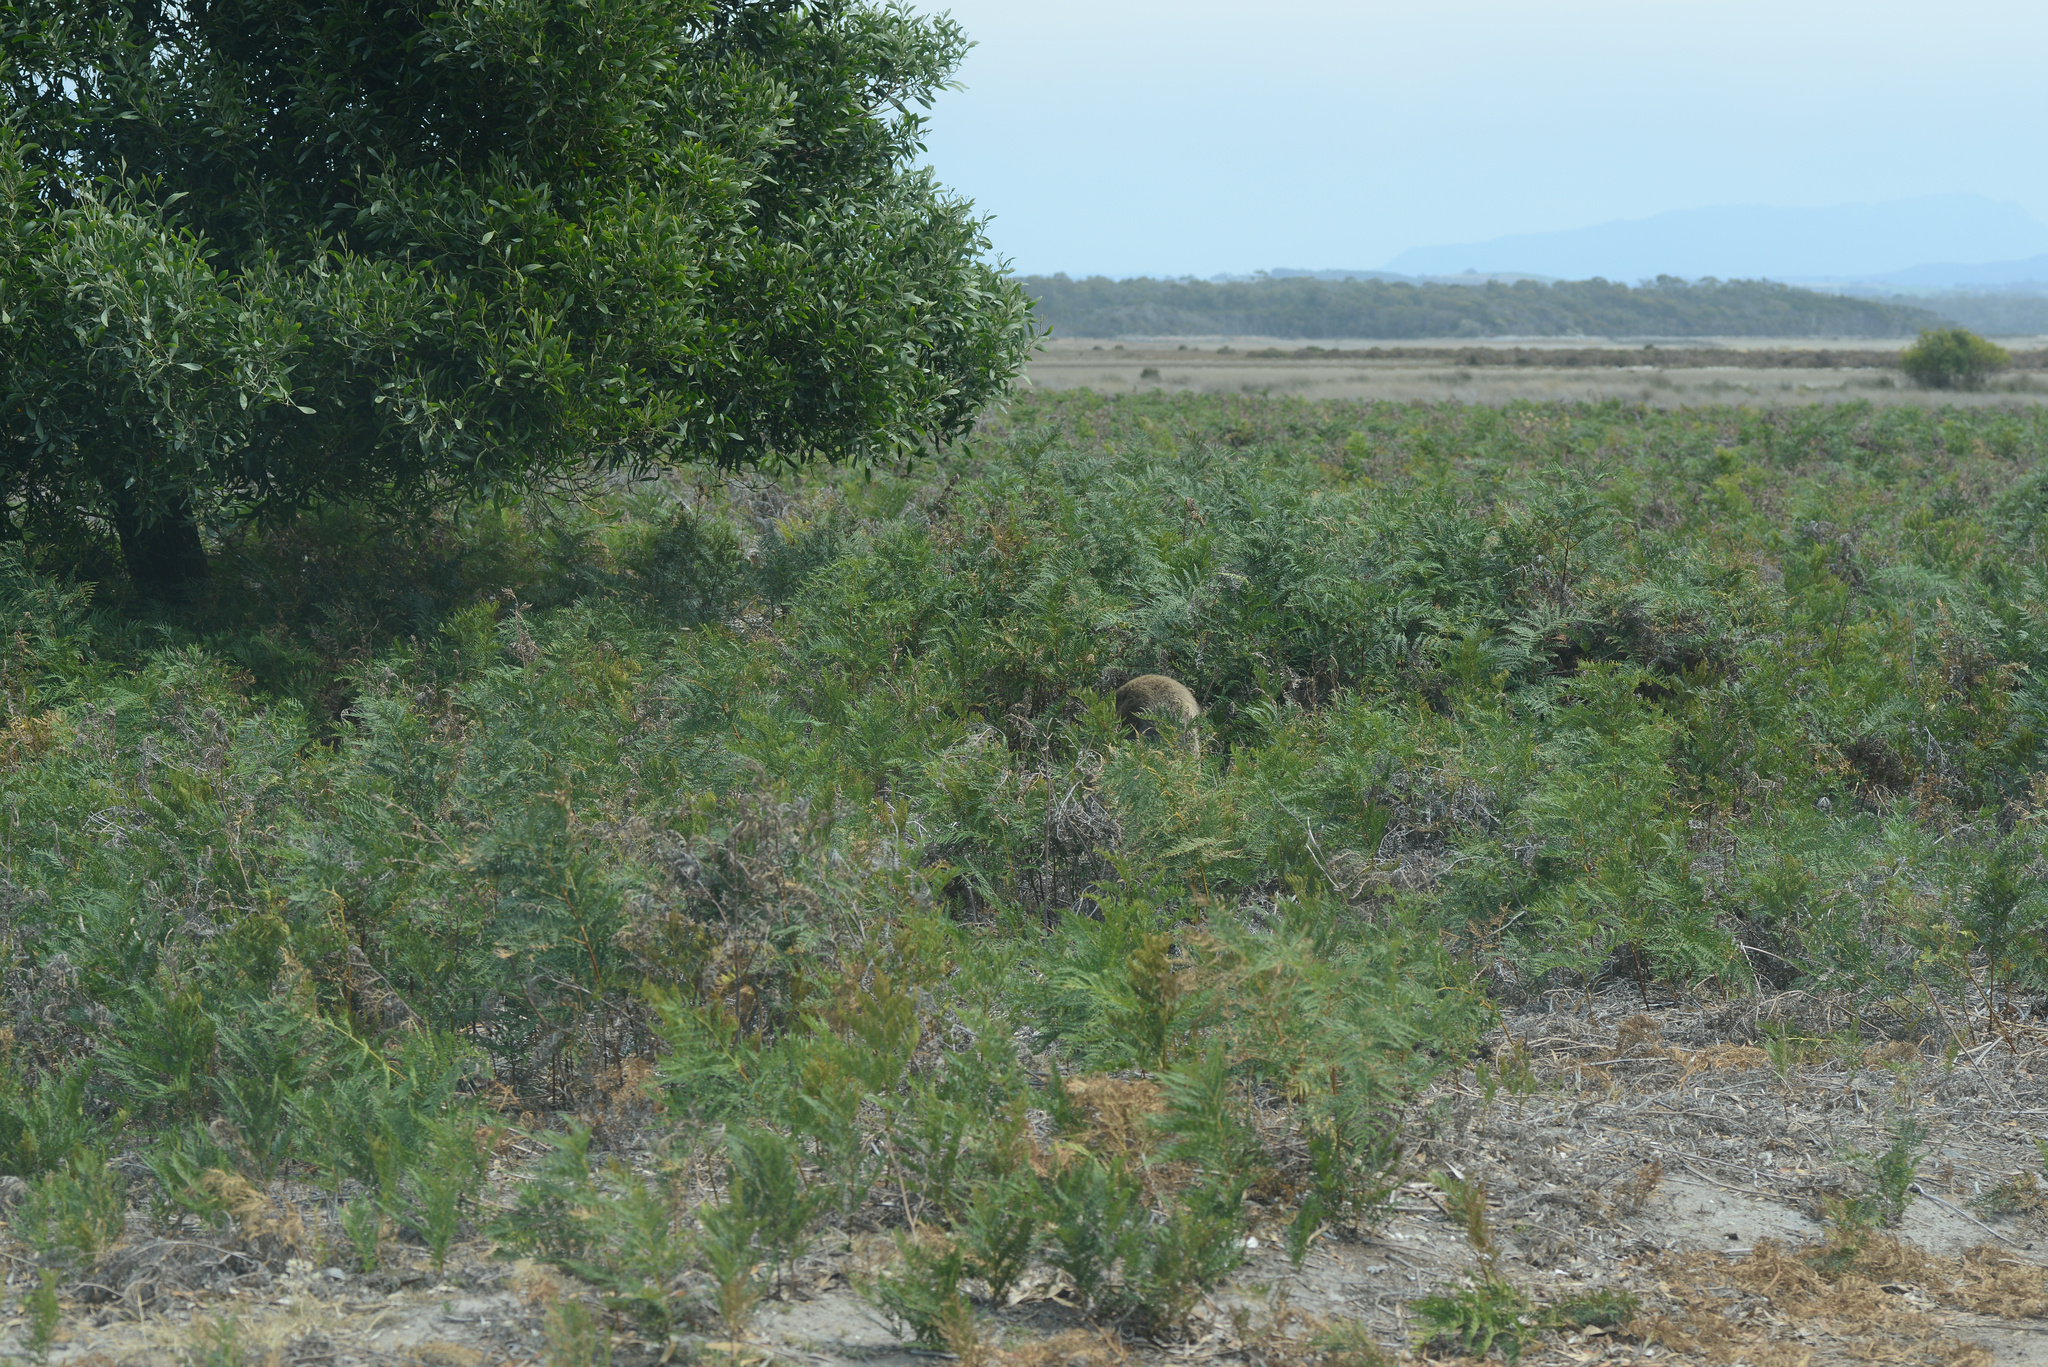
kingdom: Animalia
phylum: Chordata
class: Mammalia
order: Diprotodontia
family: Macropodidae
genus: Notamacropus
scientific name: Notamacropus rufogriseus
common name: Red-necked wallaby
